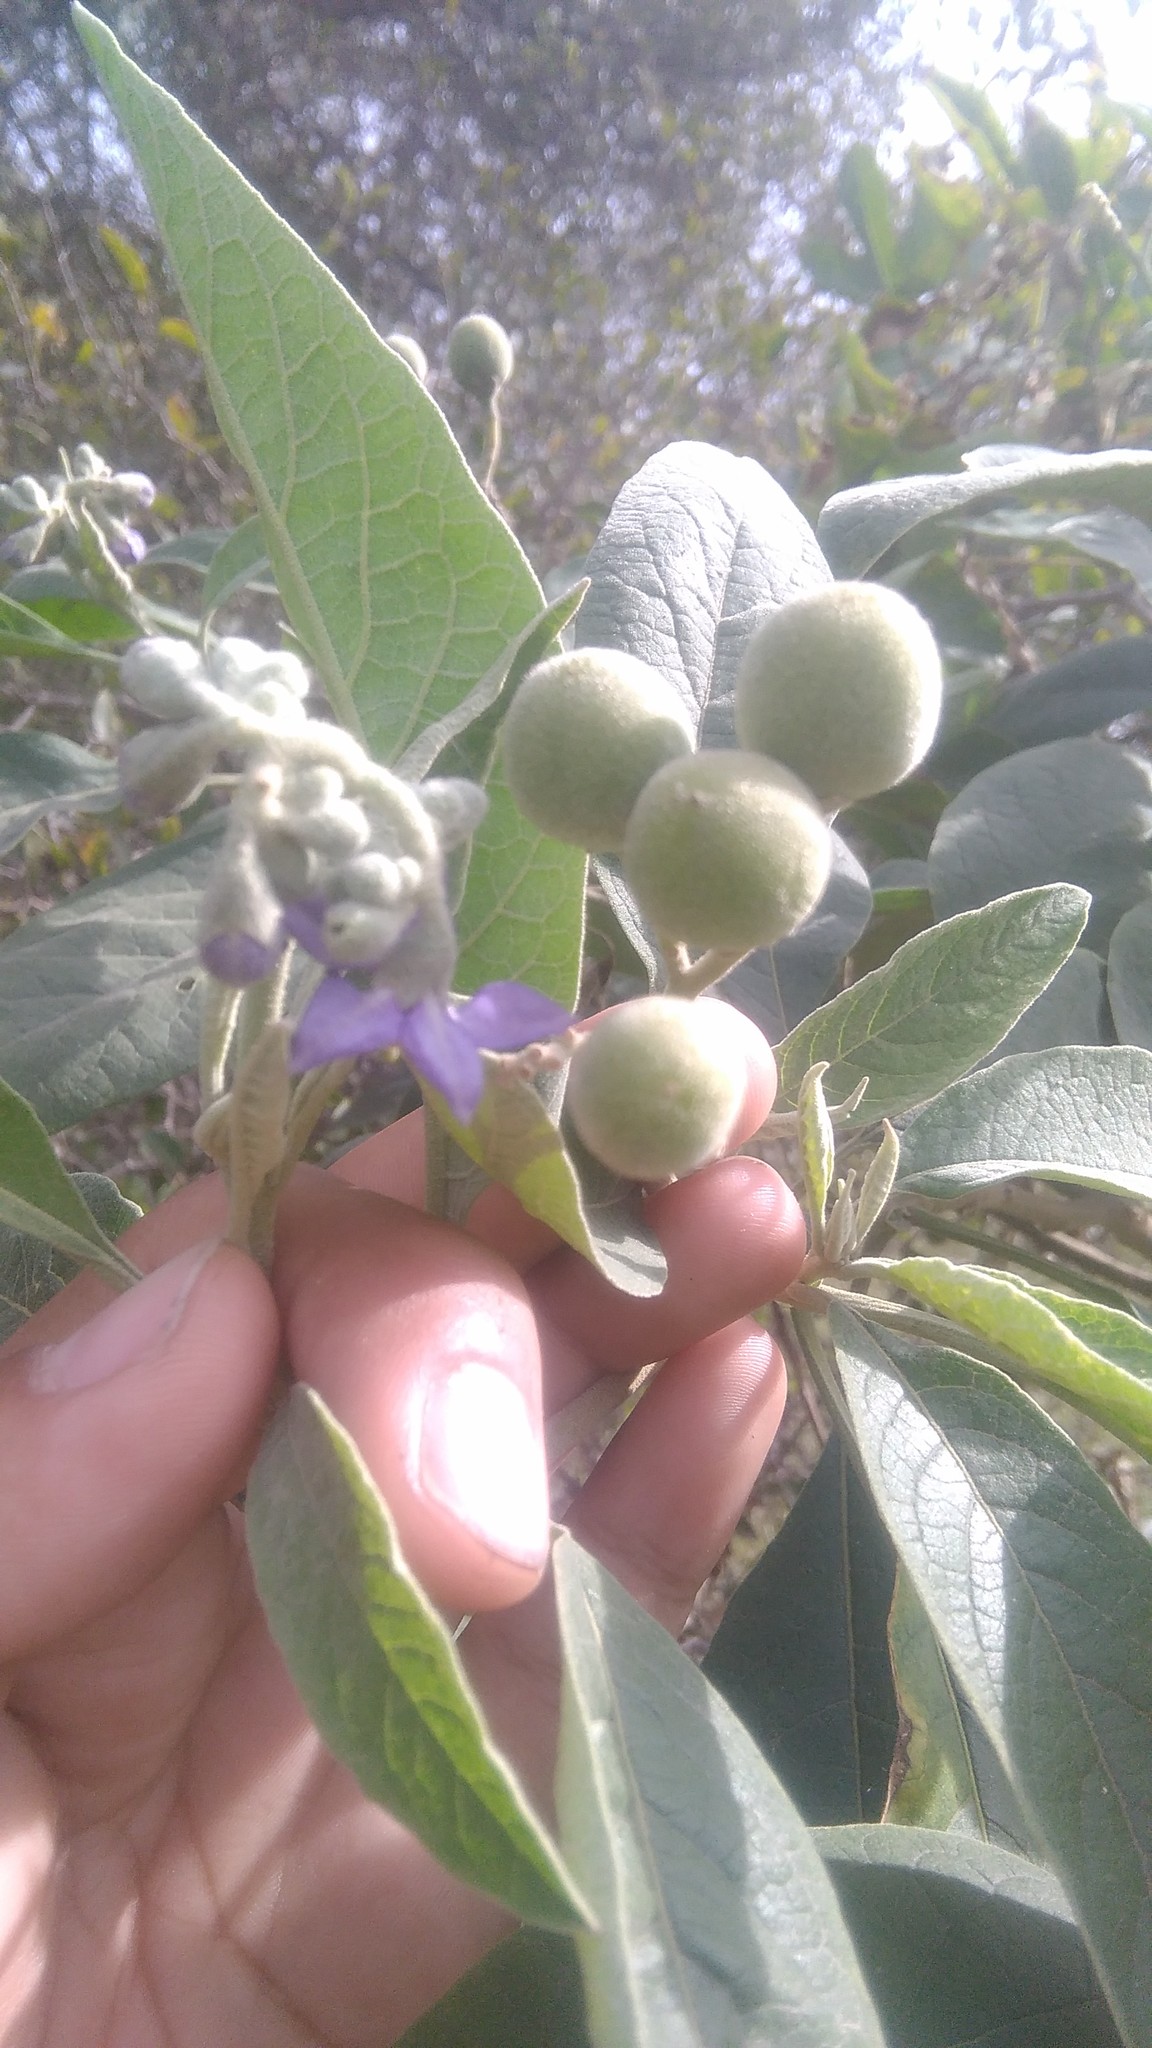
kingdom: Plantae
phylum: Tracheophyta
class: Magnoliopsida
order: Solanales
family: Solanaceae
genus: Solanum
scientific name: Solanum granulosoleprosum
